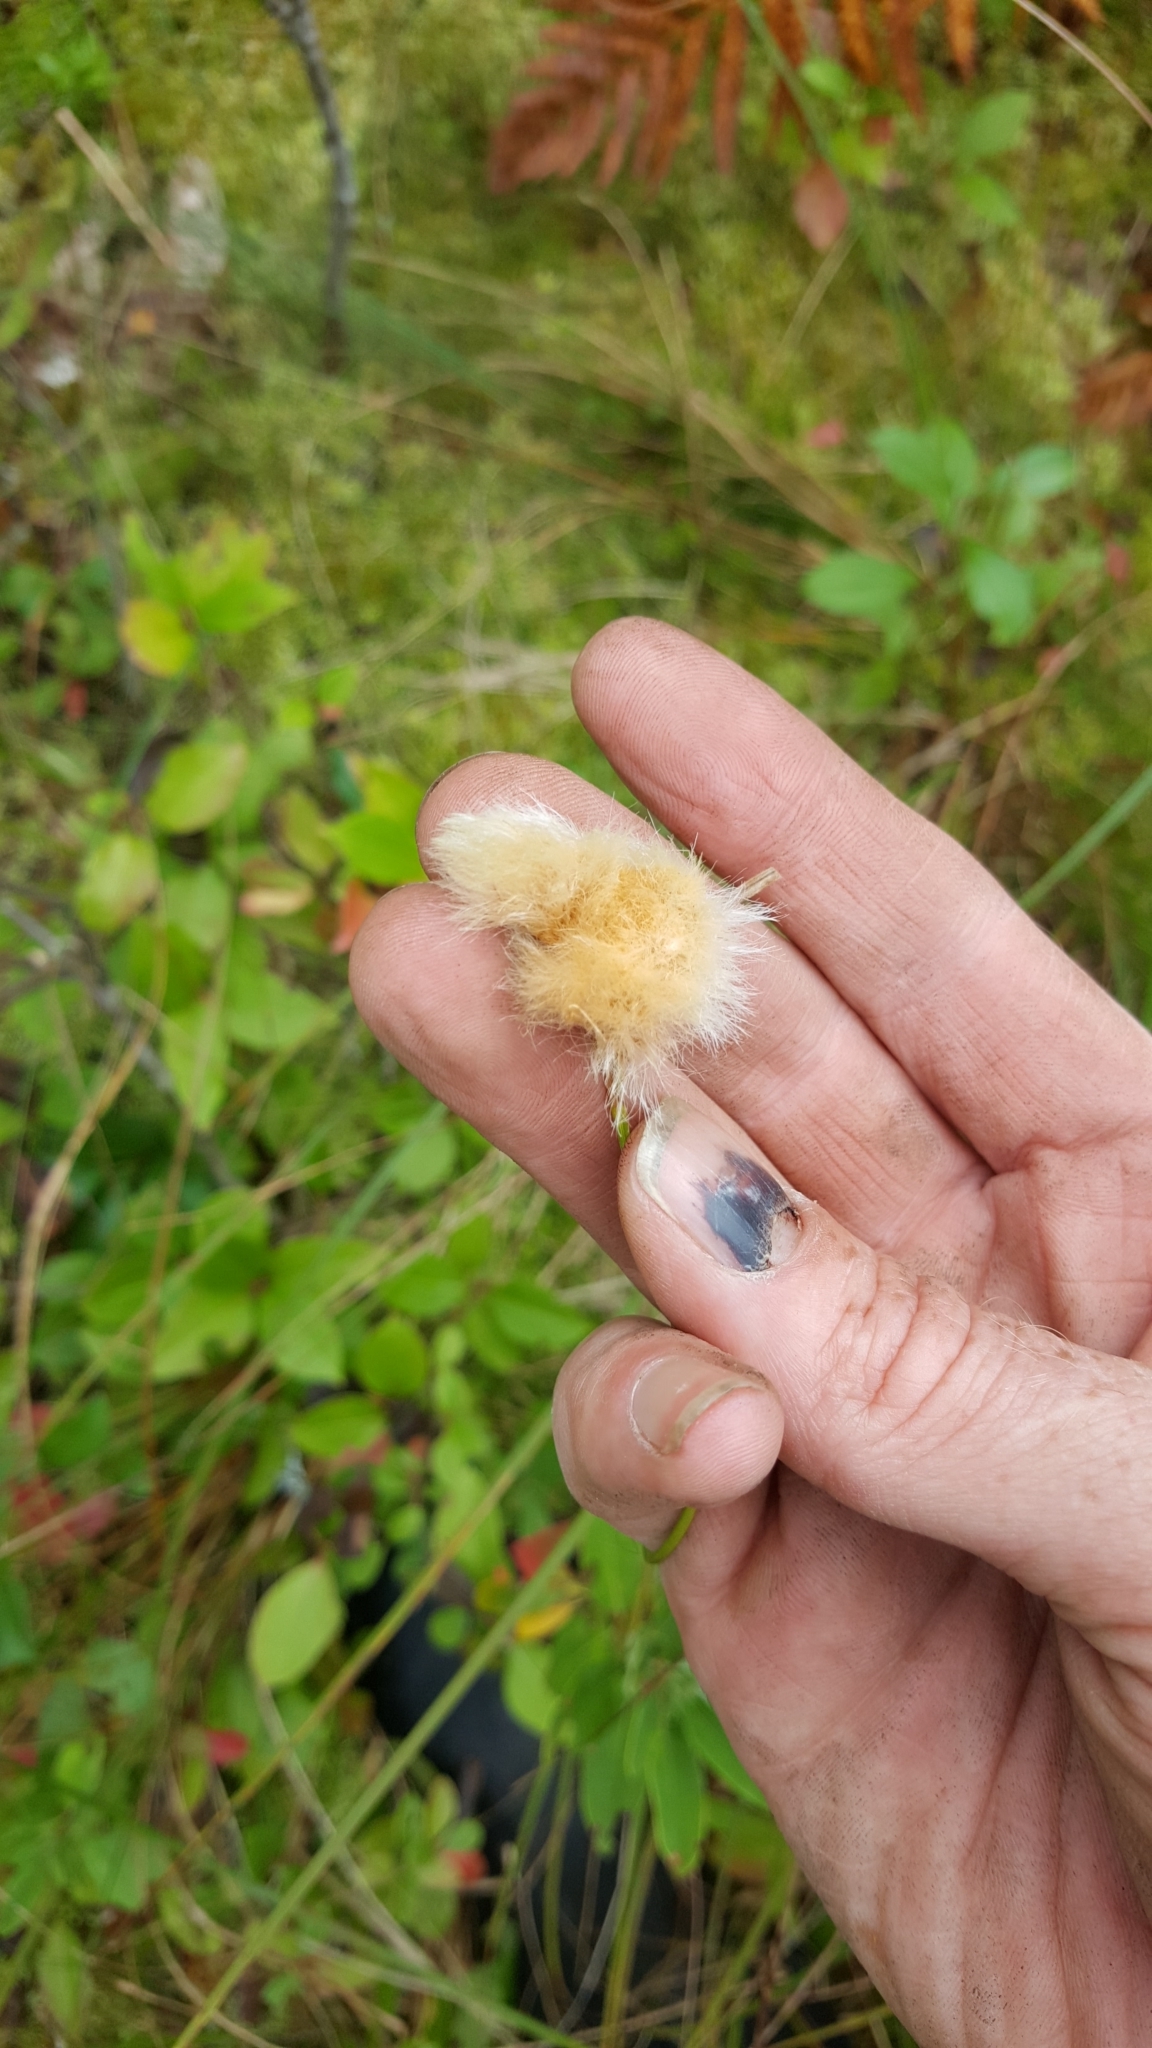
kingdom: Plantae
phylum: Tracheophyta
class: Liliopsida
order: Poales
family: Cyperaceae
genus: Eriophorum
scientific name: Eriophorum virginicum
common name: Tawny cottongrass
